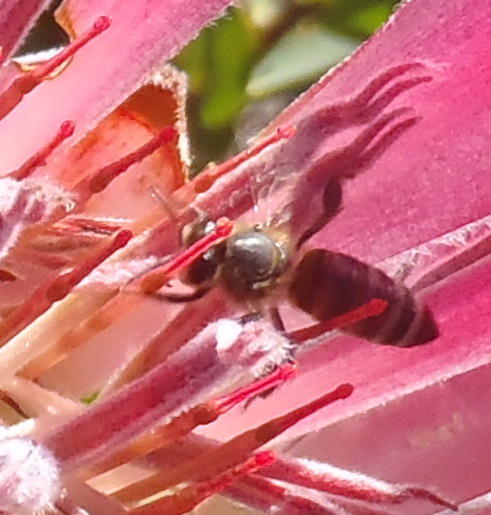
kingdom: Animalia
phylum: Arthropoda
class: Insecta
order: Hymenoptera
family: Apidae
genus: Apis
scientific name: Apis mellifera
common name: Honey bee
